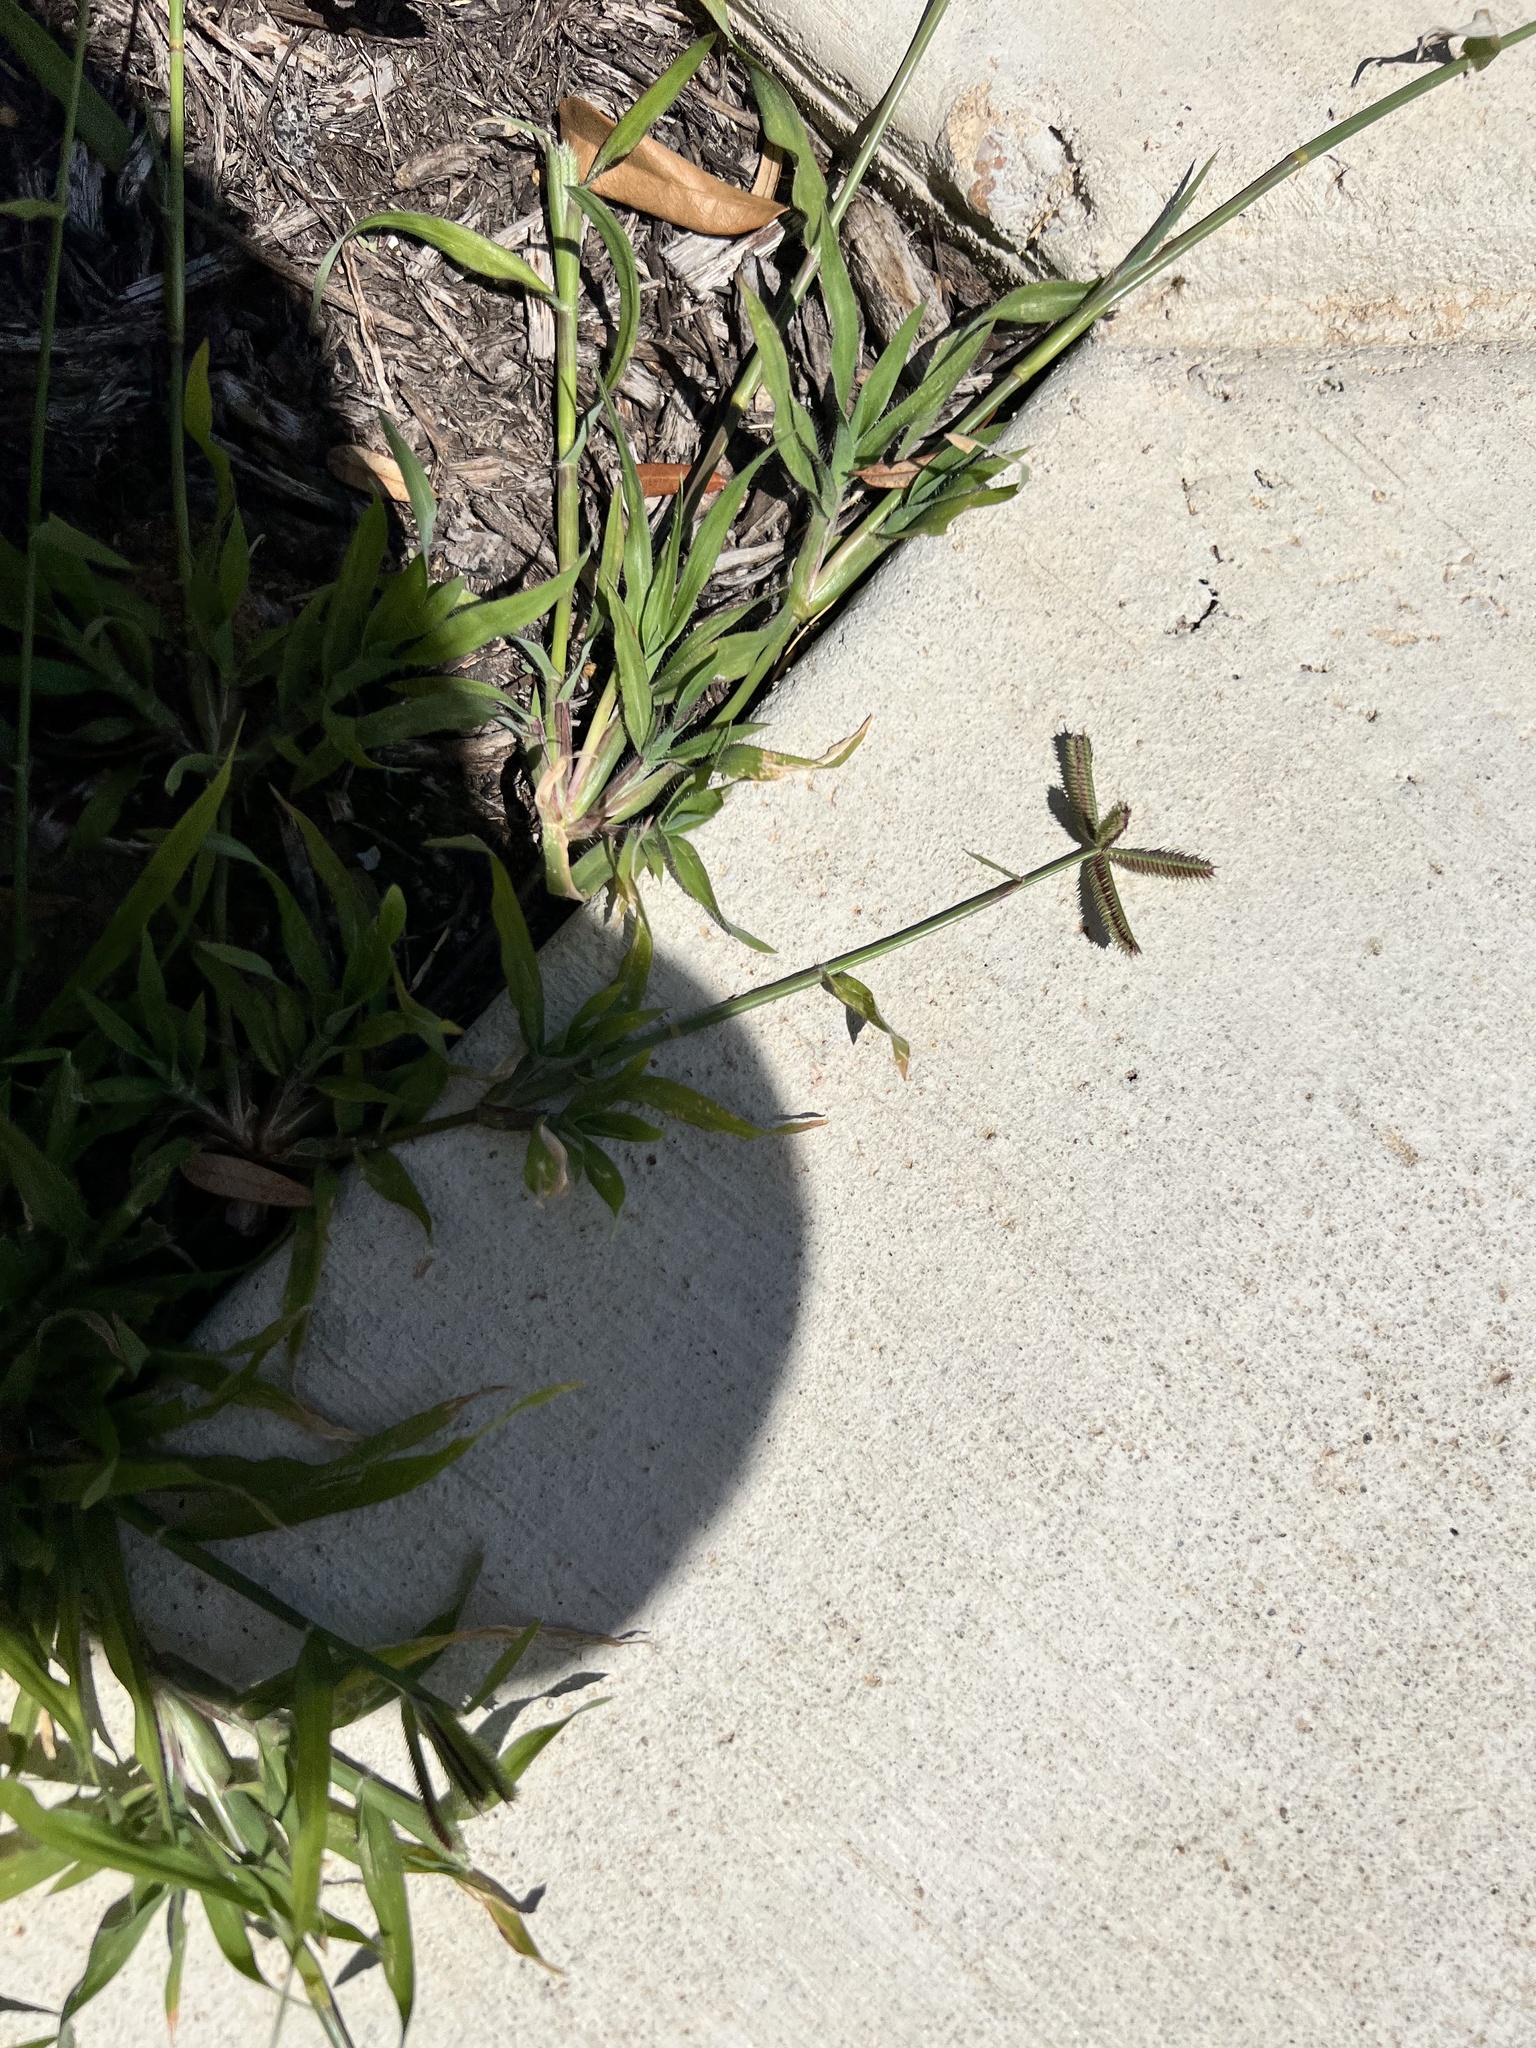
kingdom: Plantae
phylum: Tracheophyta
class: Liliopsida
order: Poales
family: Poaceae
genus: Dactyloctenium
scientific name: Dactyloctenium aegyptium
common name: Egyptian grass
